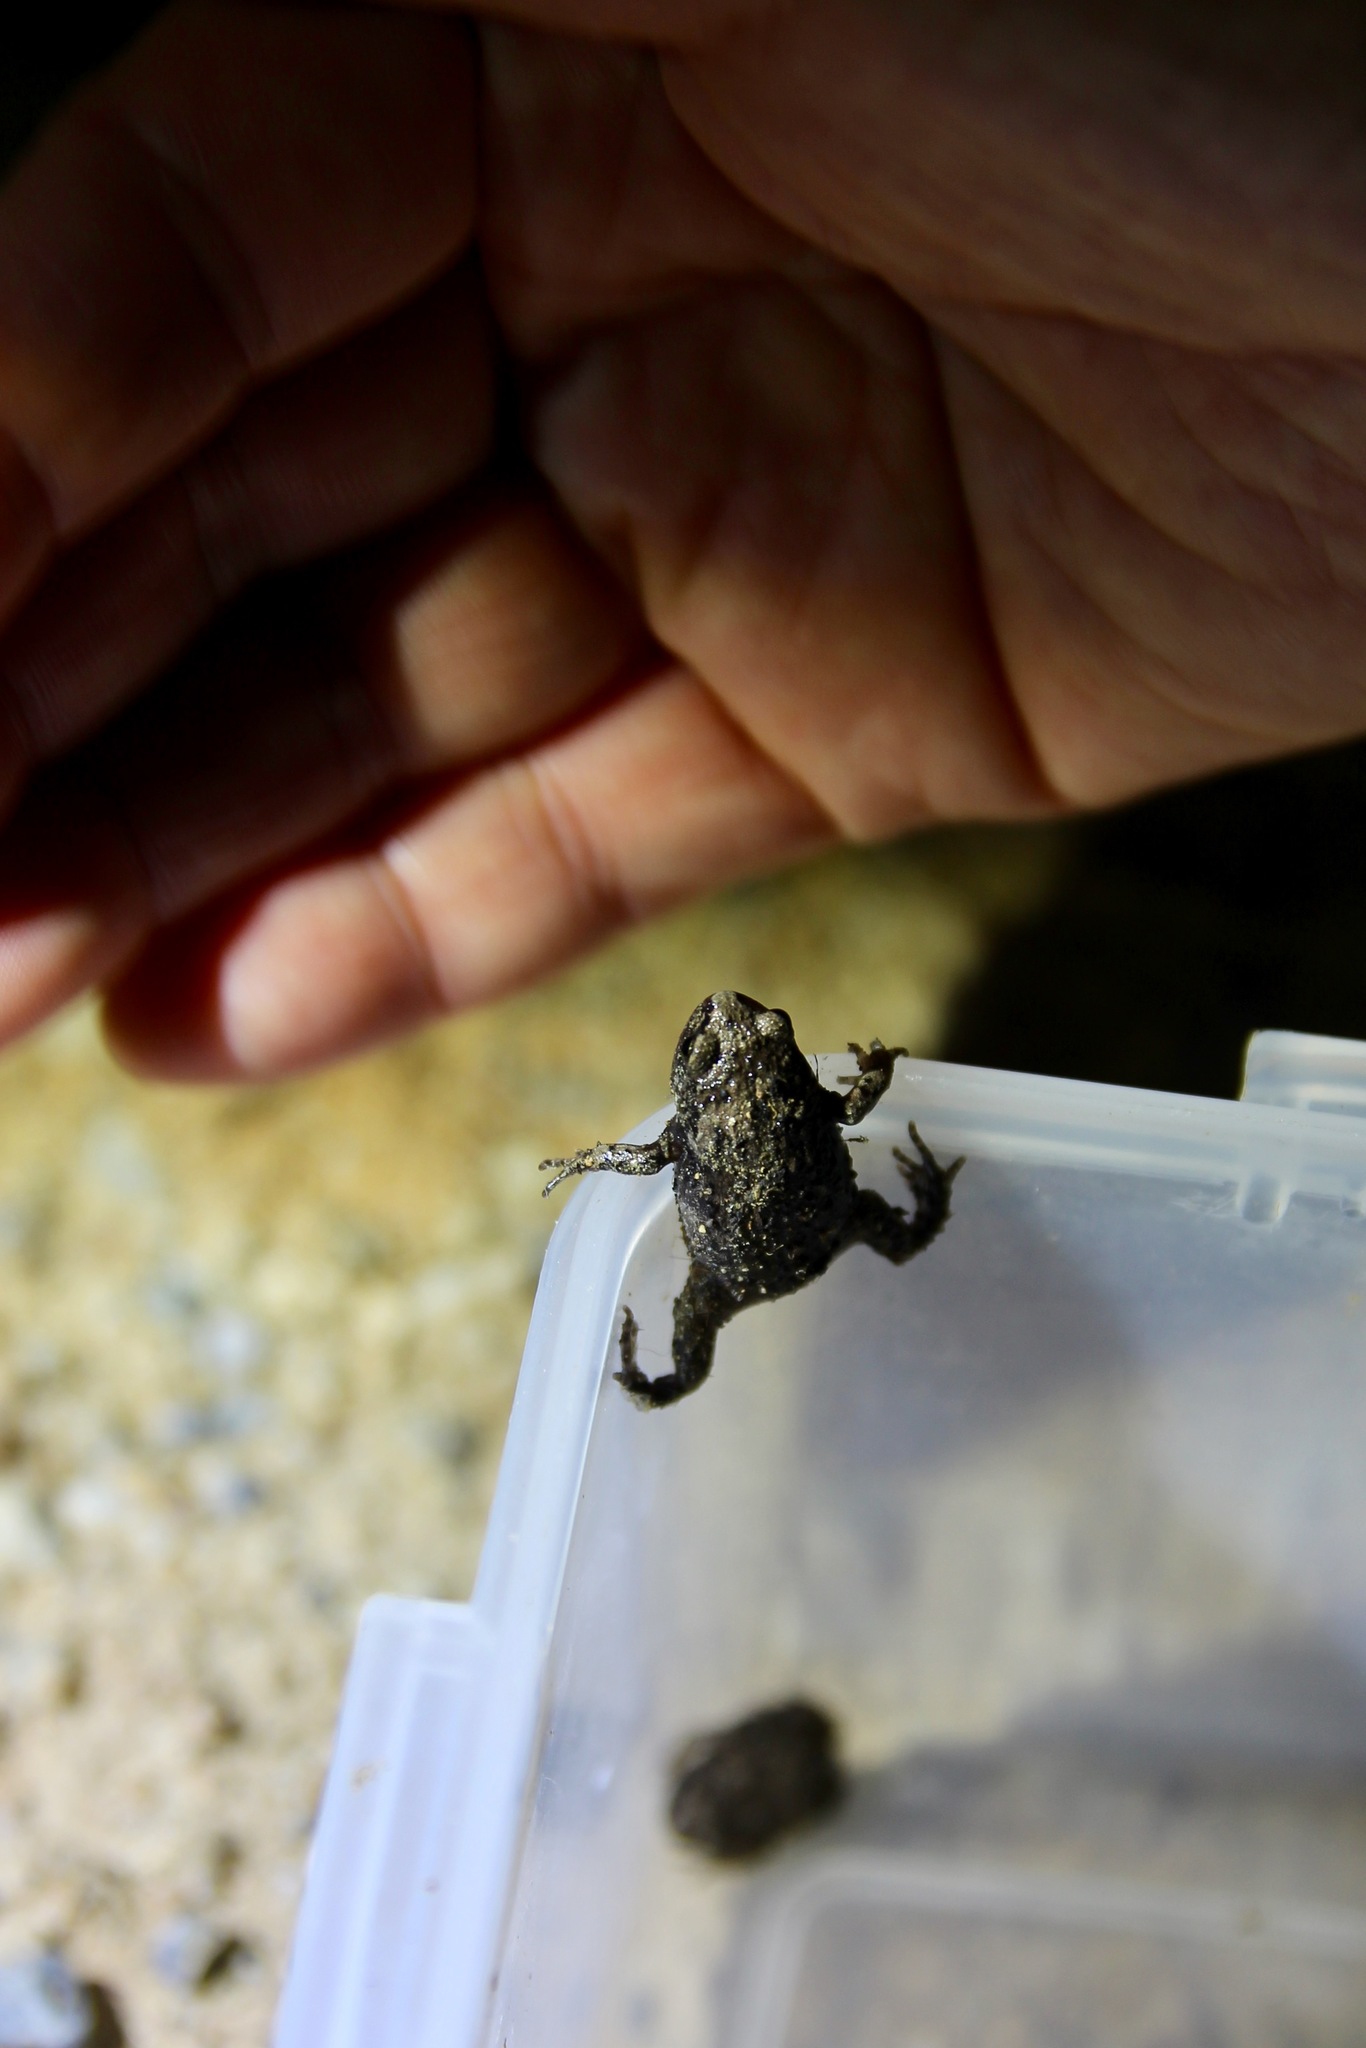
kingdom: Animalia
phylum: Chordata
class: Amphibia
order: Anura
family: Microhylidae
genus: Kaloula
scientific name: Kaloula borealis
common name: Boreal digging frog
